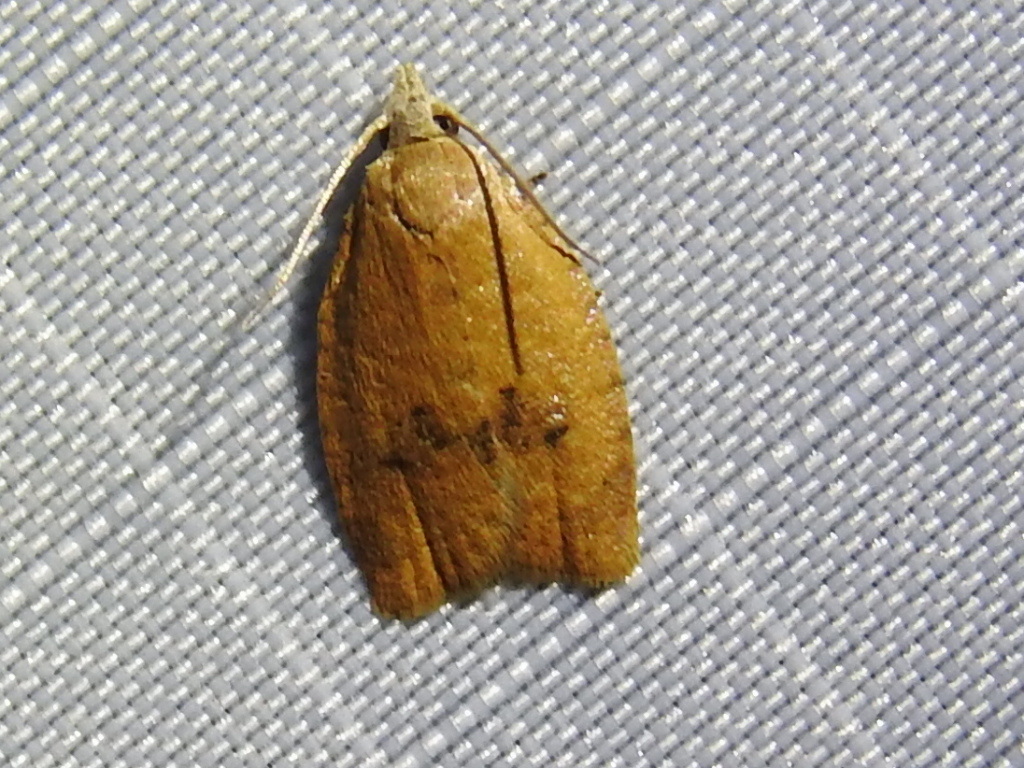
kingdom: Animalia
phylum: Arthropoda
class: Insecta
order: Lepidoptera
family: Tortricidae
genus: Sparganothoides
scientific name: Sparganothoides lentiginosana
